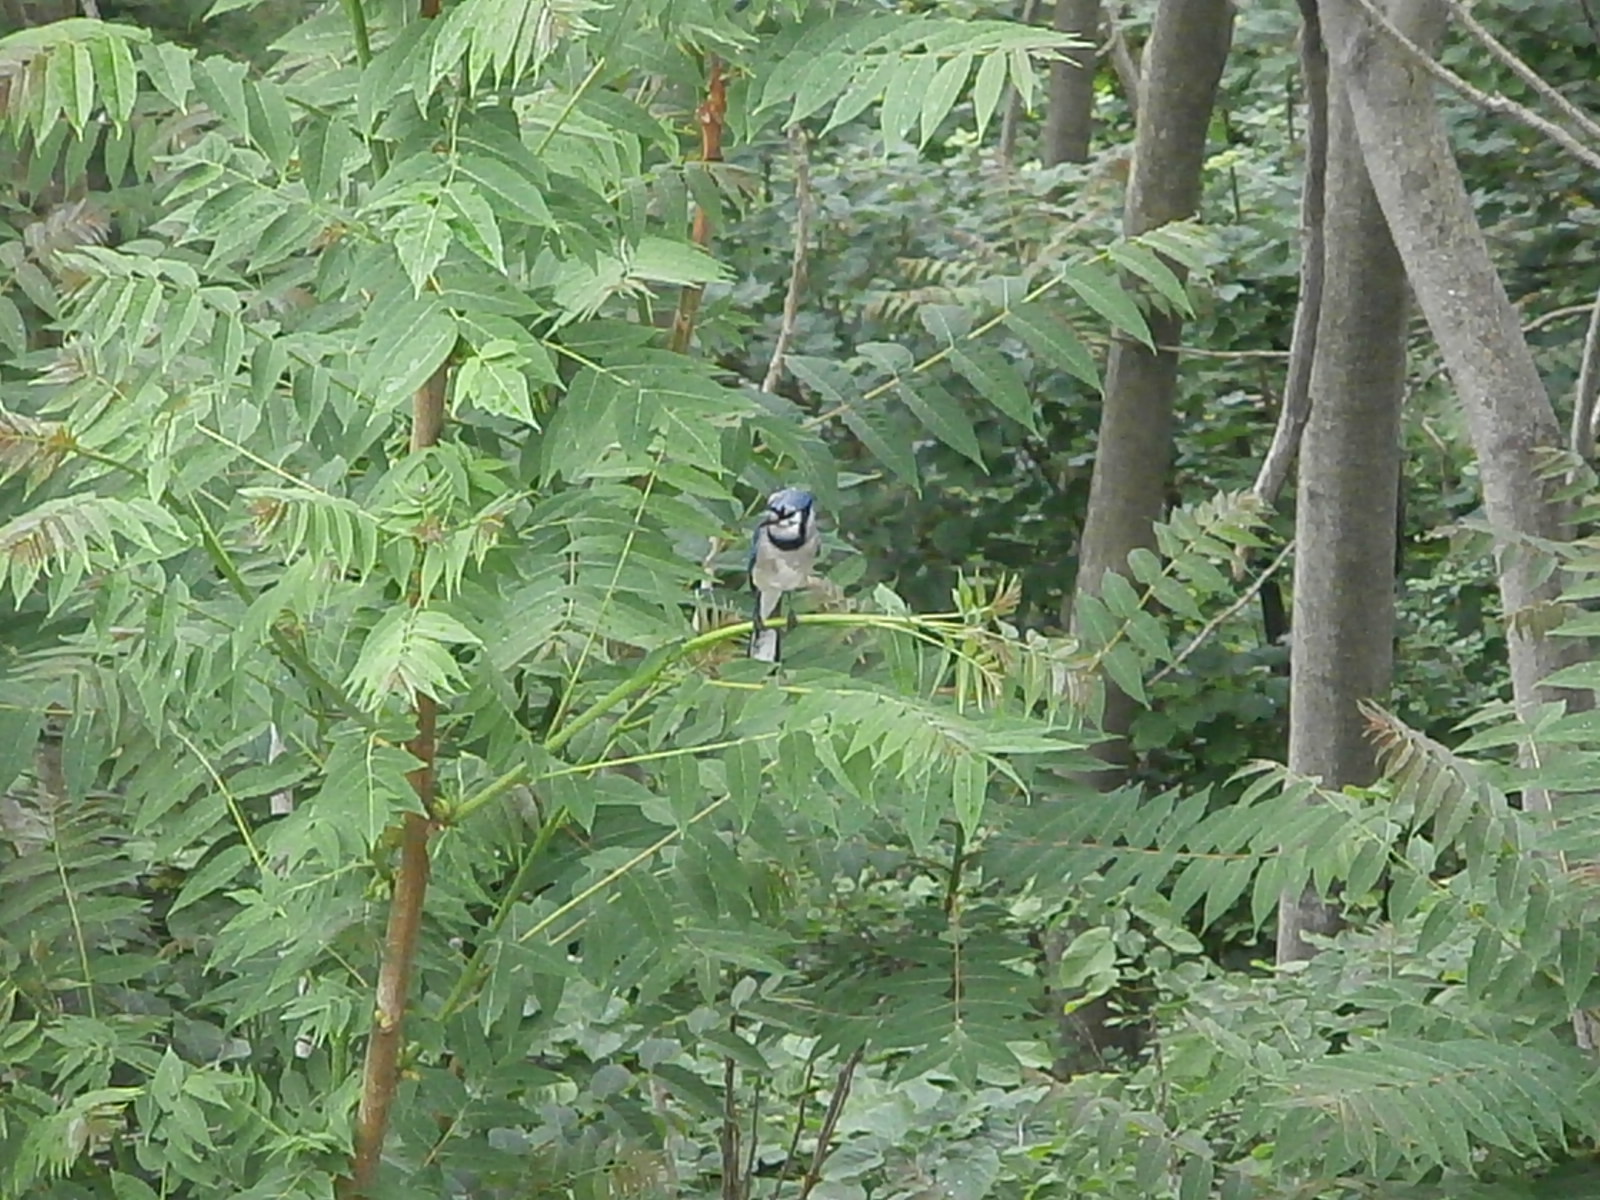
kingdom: Animalia
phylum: Chordata
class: Aves
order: Passeriformes
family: Corvidae
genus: Cyanocitta
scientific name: Cyanocitta cristata
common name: Blue jay
